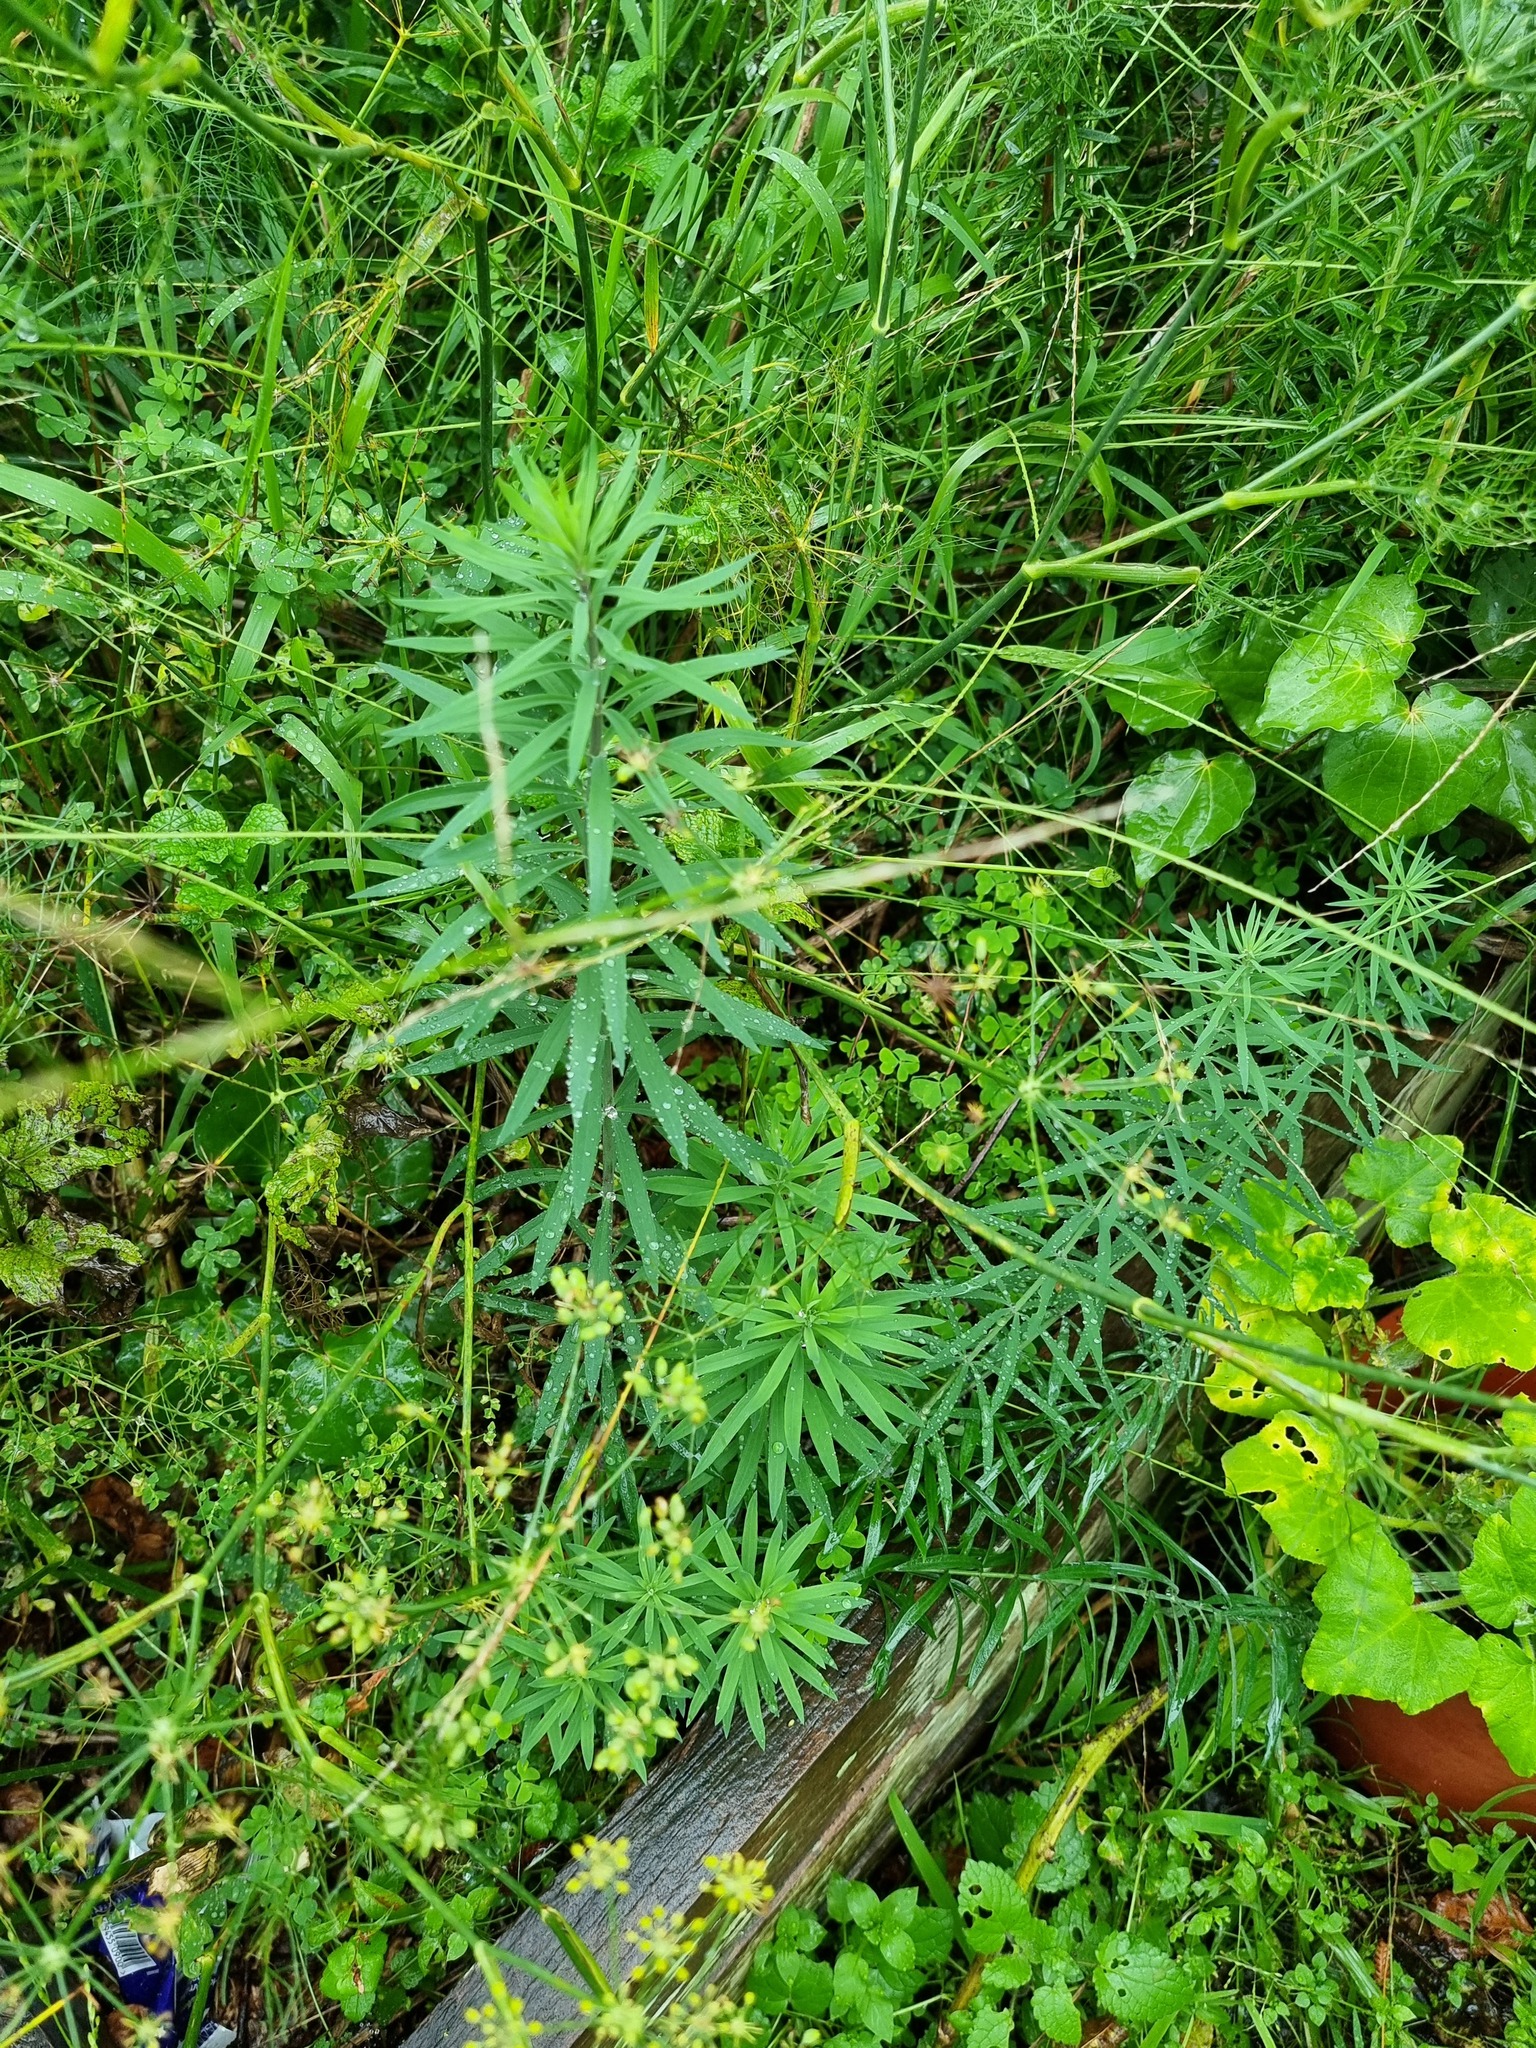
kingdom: Plantae
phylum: Tracheophyta
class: Magnoliopsida
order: Lamiales
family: Plantaginaceae
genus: Linaria
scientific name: Linaria purpurea
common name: Purple toadflax
